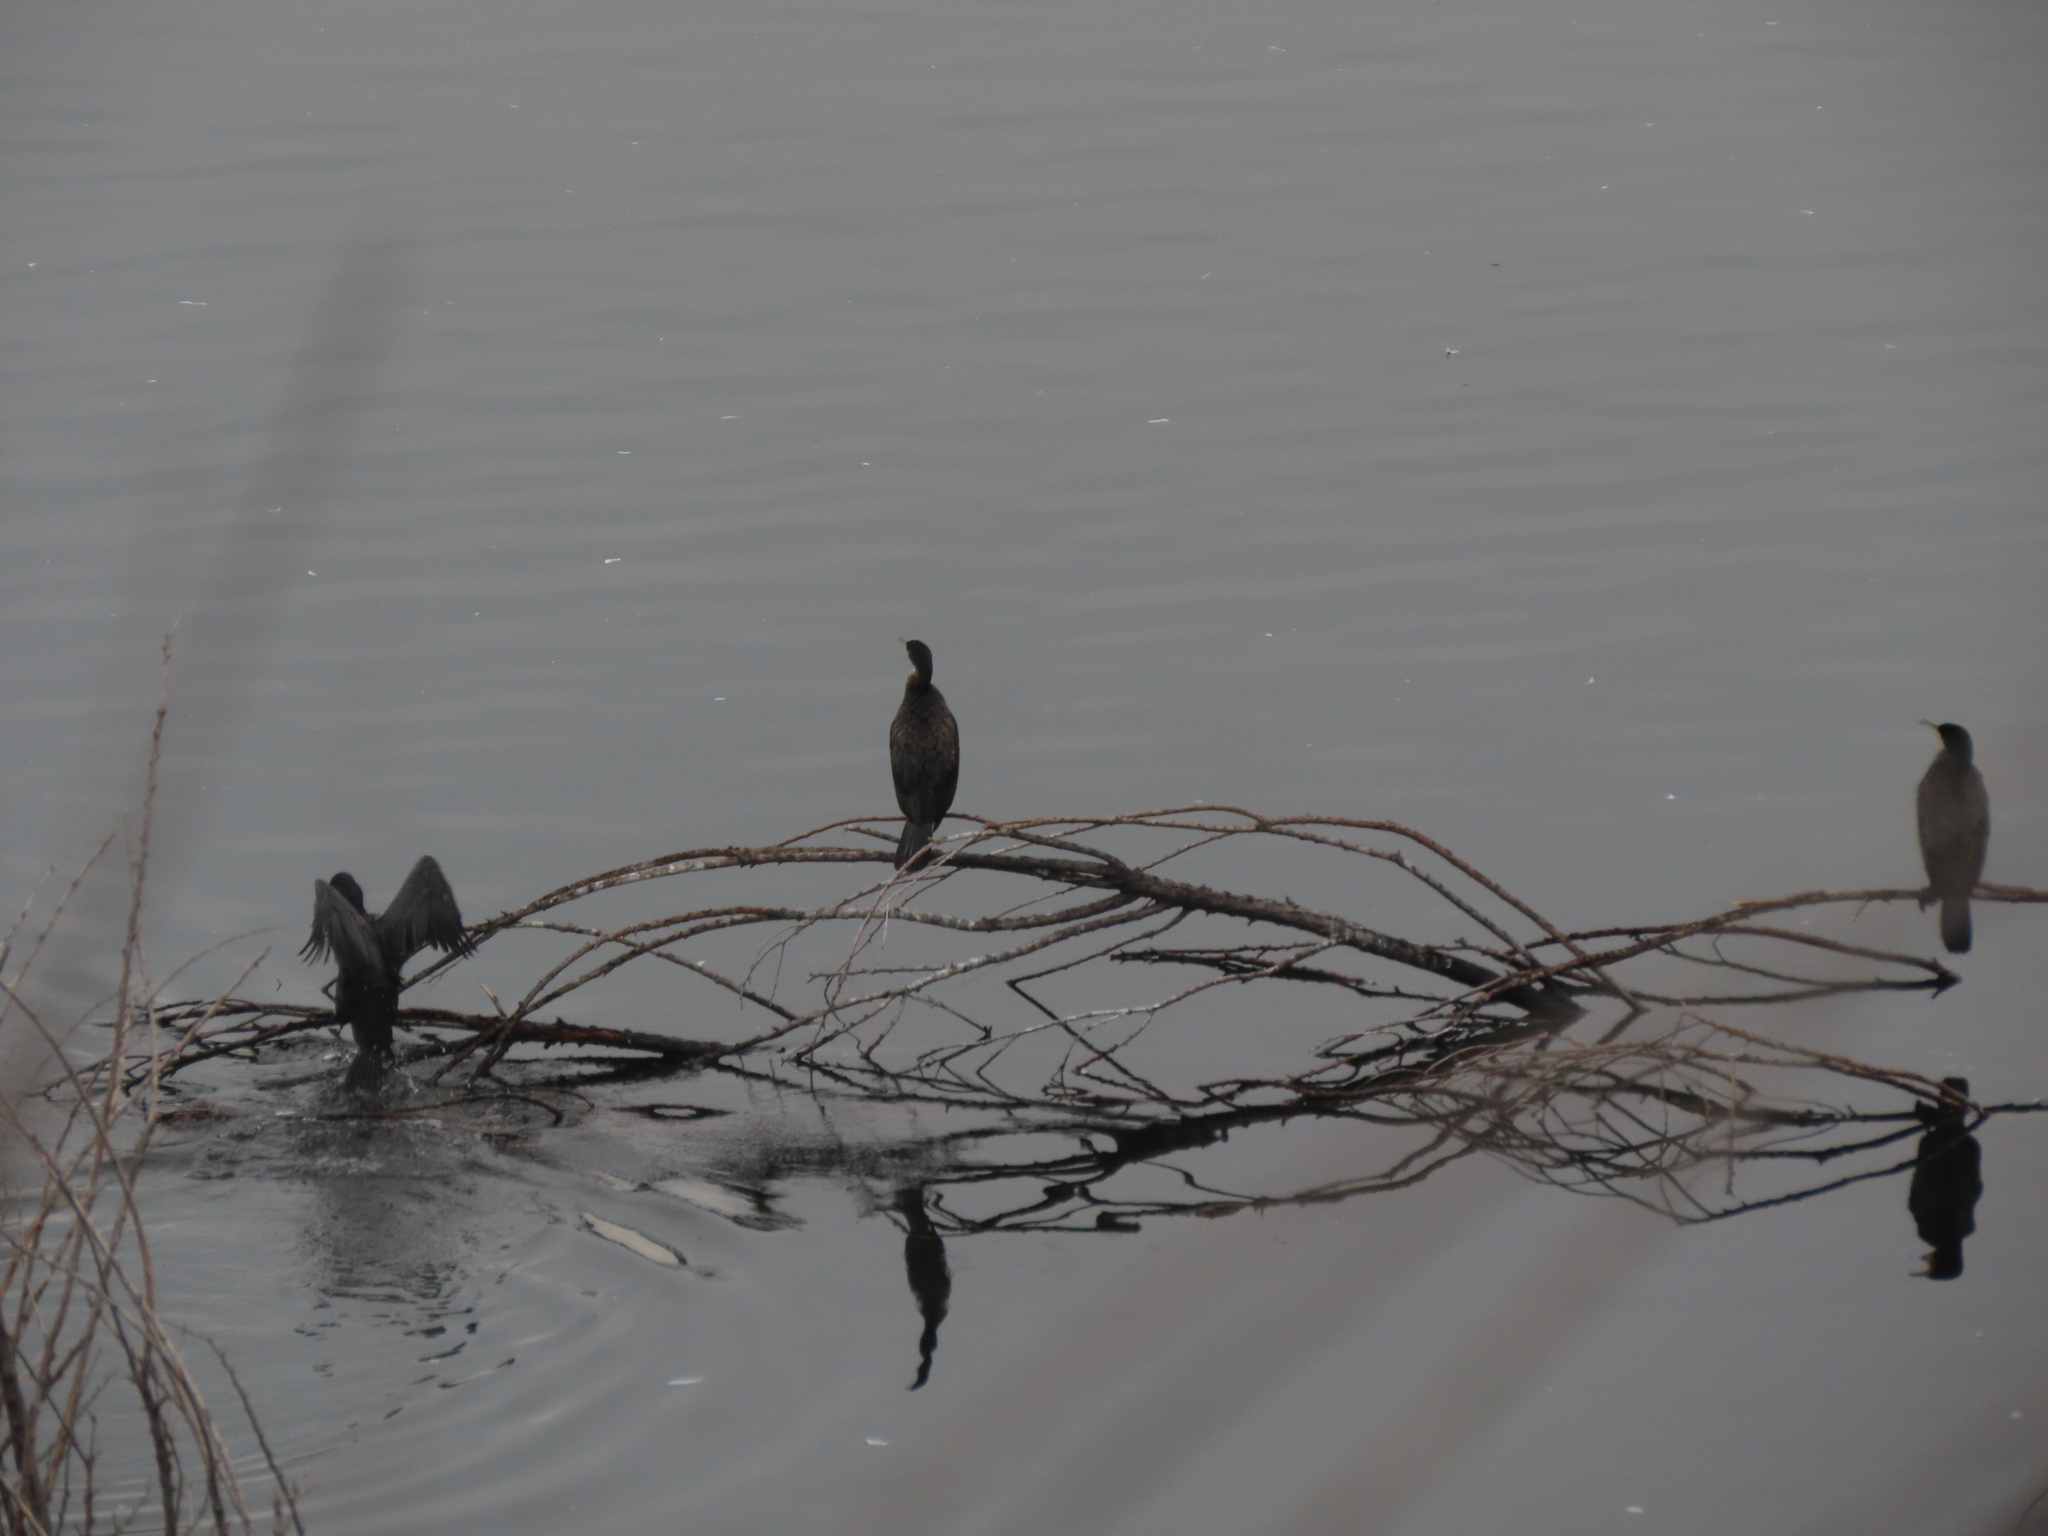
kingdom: Animalia
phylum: Chordata
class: Aves
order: Suliformes
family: Phalacrocoracidae
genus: Phalacrocorax
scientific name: Phalacrocorax carbo
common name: Great cormorant
